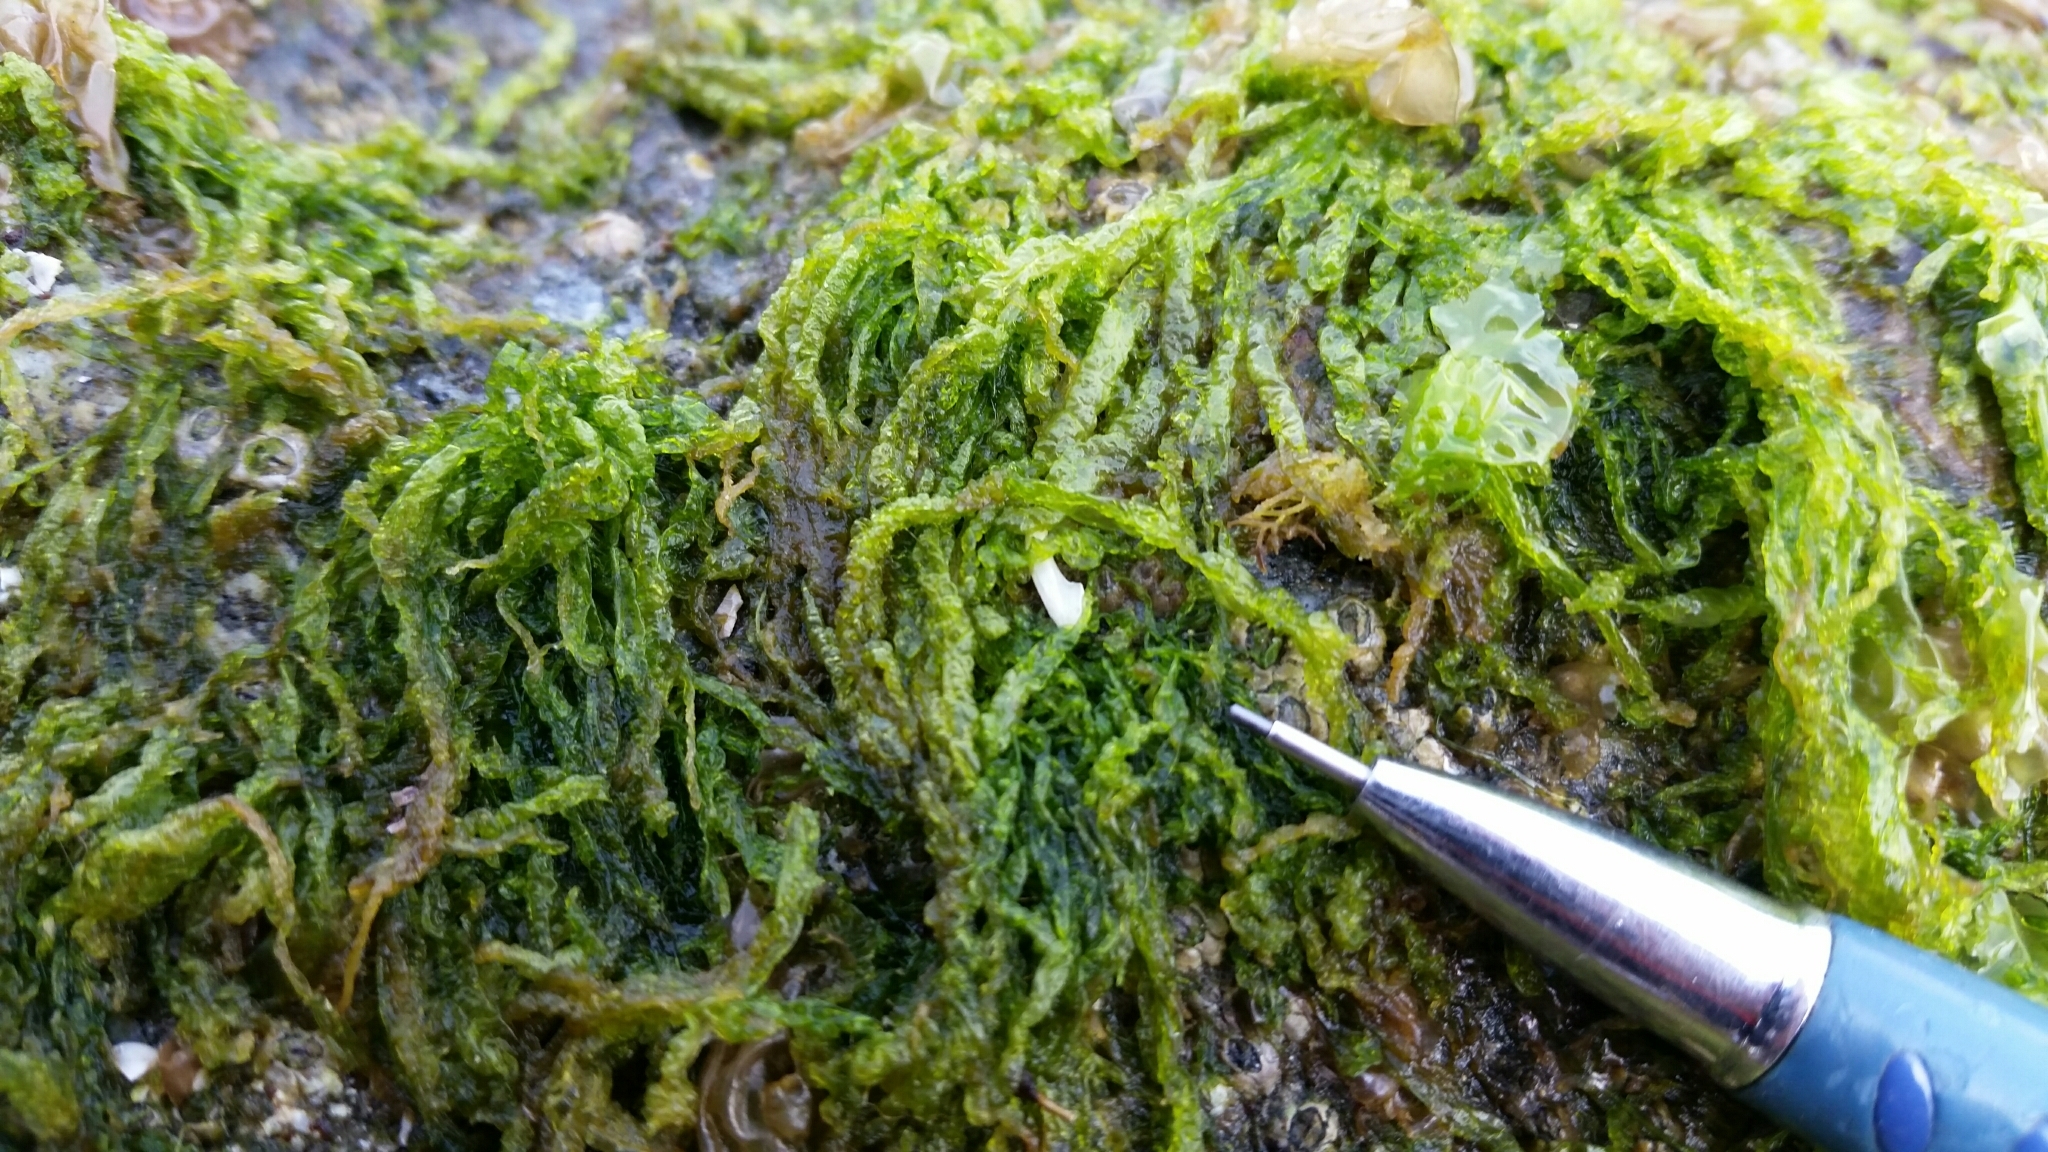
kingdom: Plantae
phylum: Chlorophyta
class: Ulvophyceae
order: Ulvales
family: Ulvaceae
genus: Ulva
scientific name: Ulva intestinalis
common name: Gut weed
